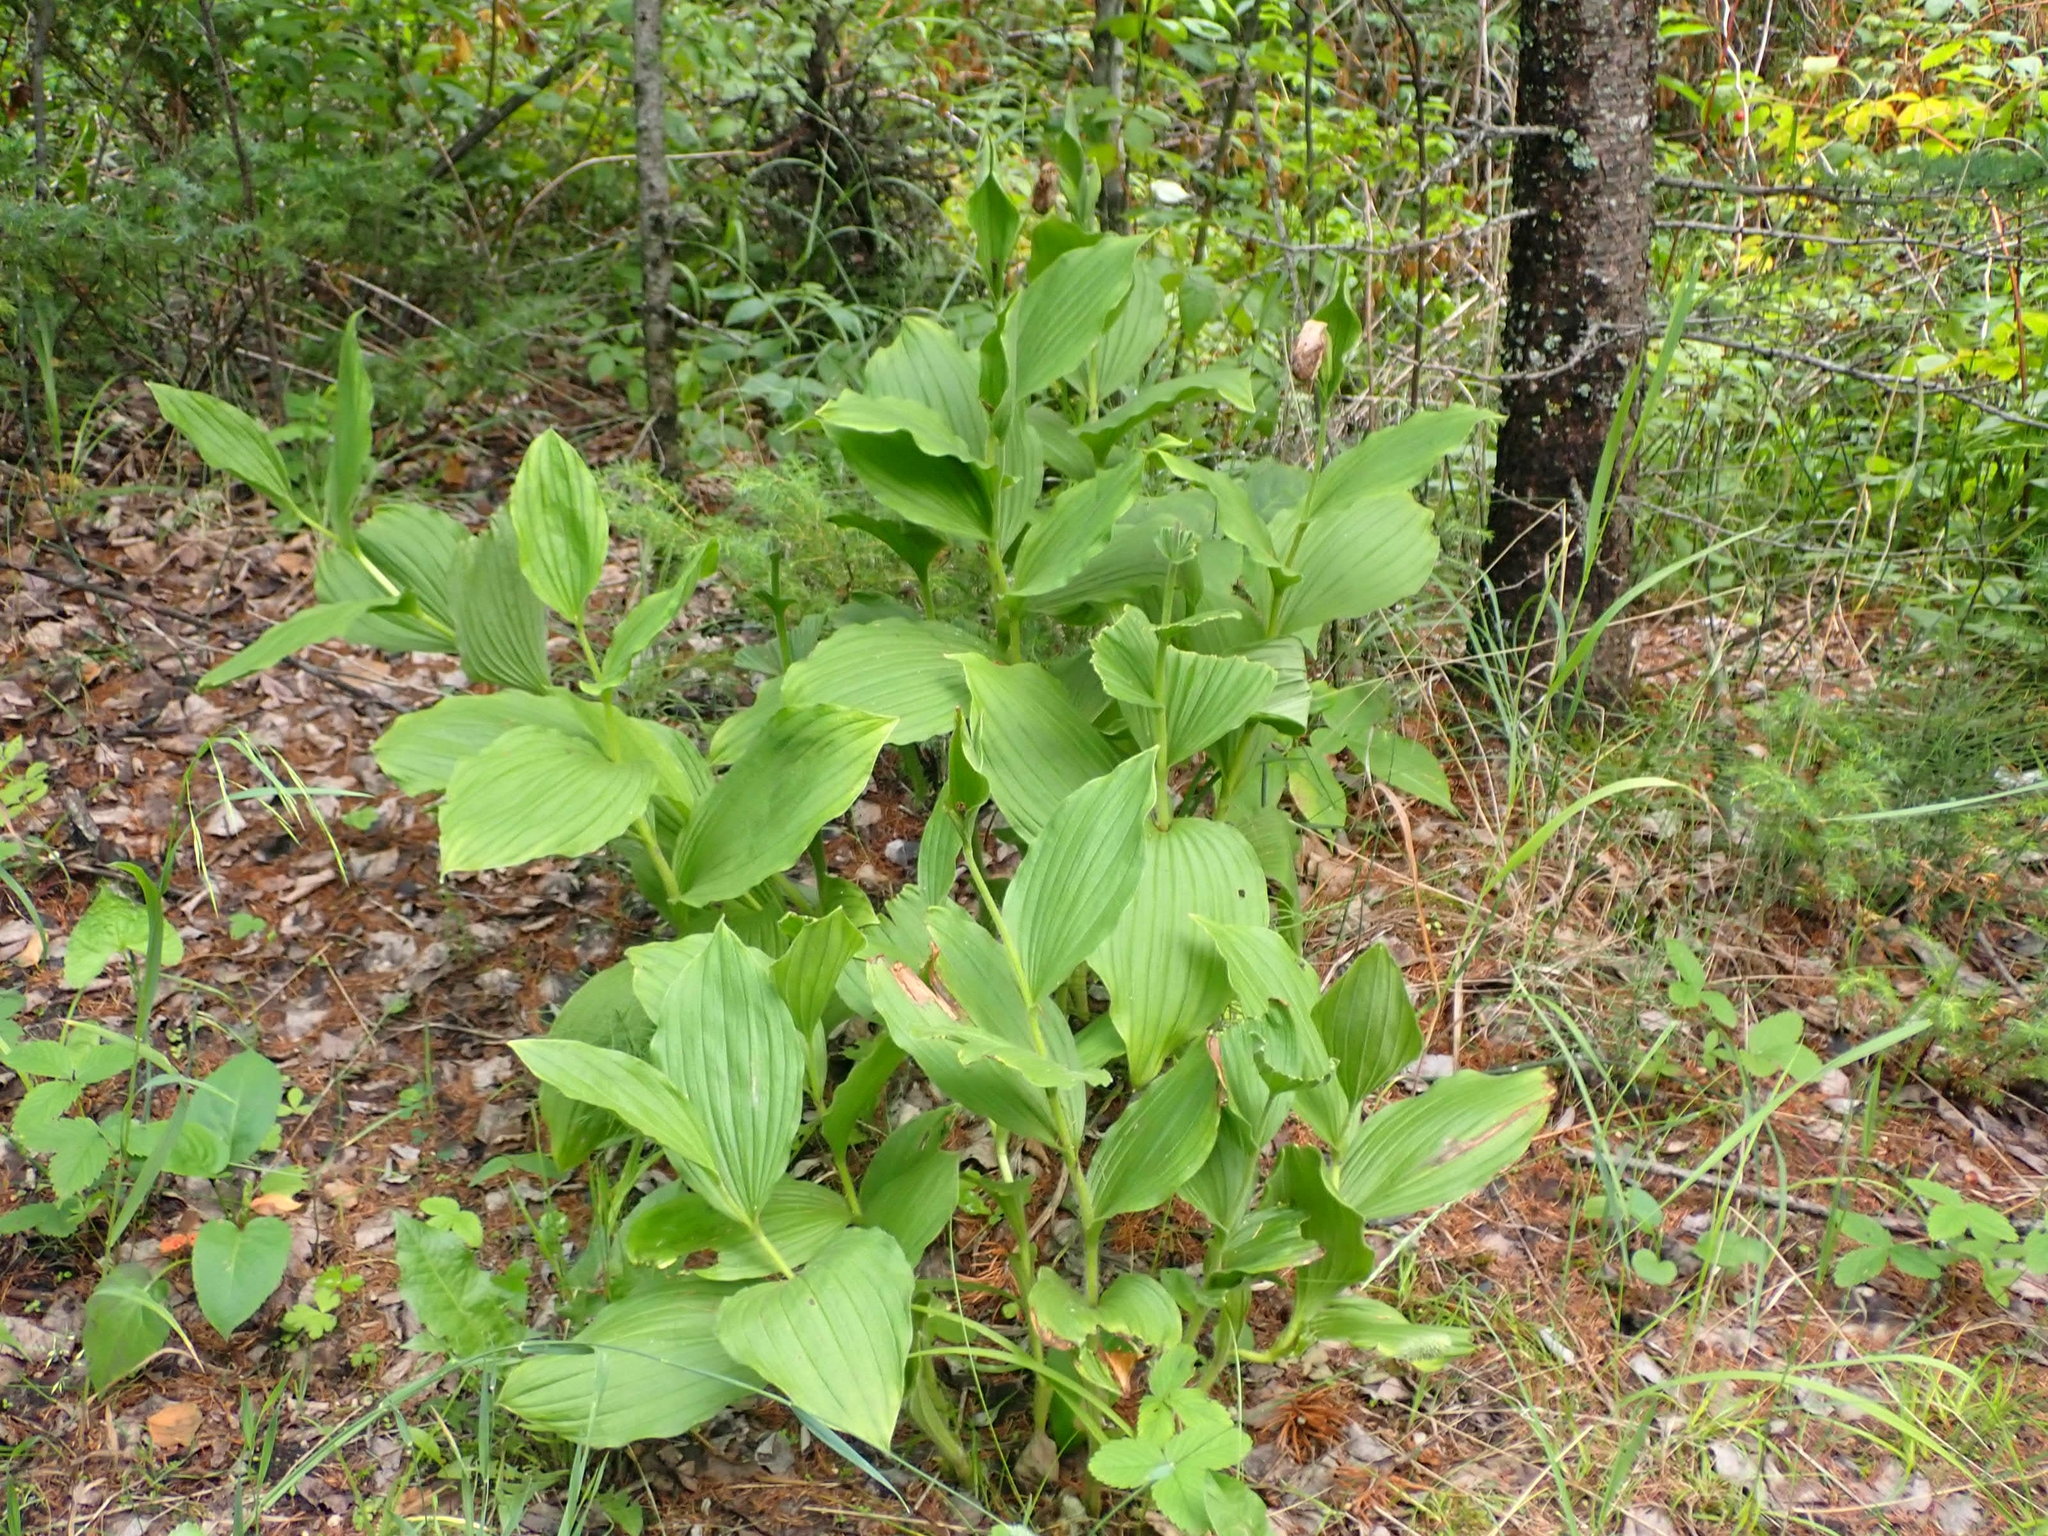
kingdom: Plantae
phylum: Tracheophyta
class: Liliopsida
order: Asparagales
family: Orchidaceae
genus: Cypripedium
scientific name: Cypripedium reginae
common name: Queen lady's-slipper
